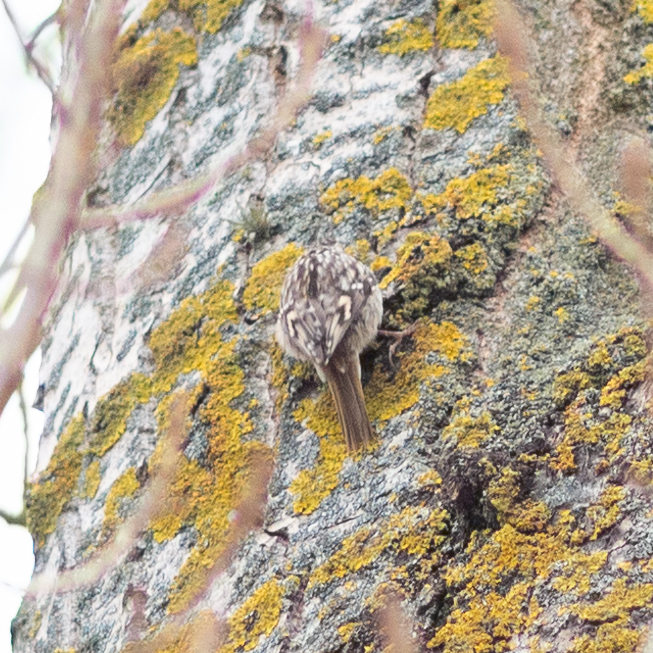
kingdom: Animalia
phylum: Chordata
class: Aves
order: Passeriformes
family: Certhiidae
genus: Certhia
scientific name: Certhia brachydactyla
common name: Short-toed treecreeper
